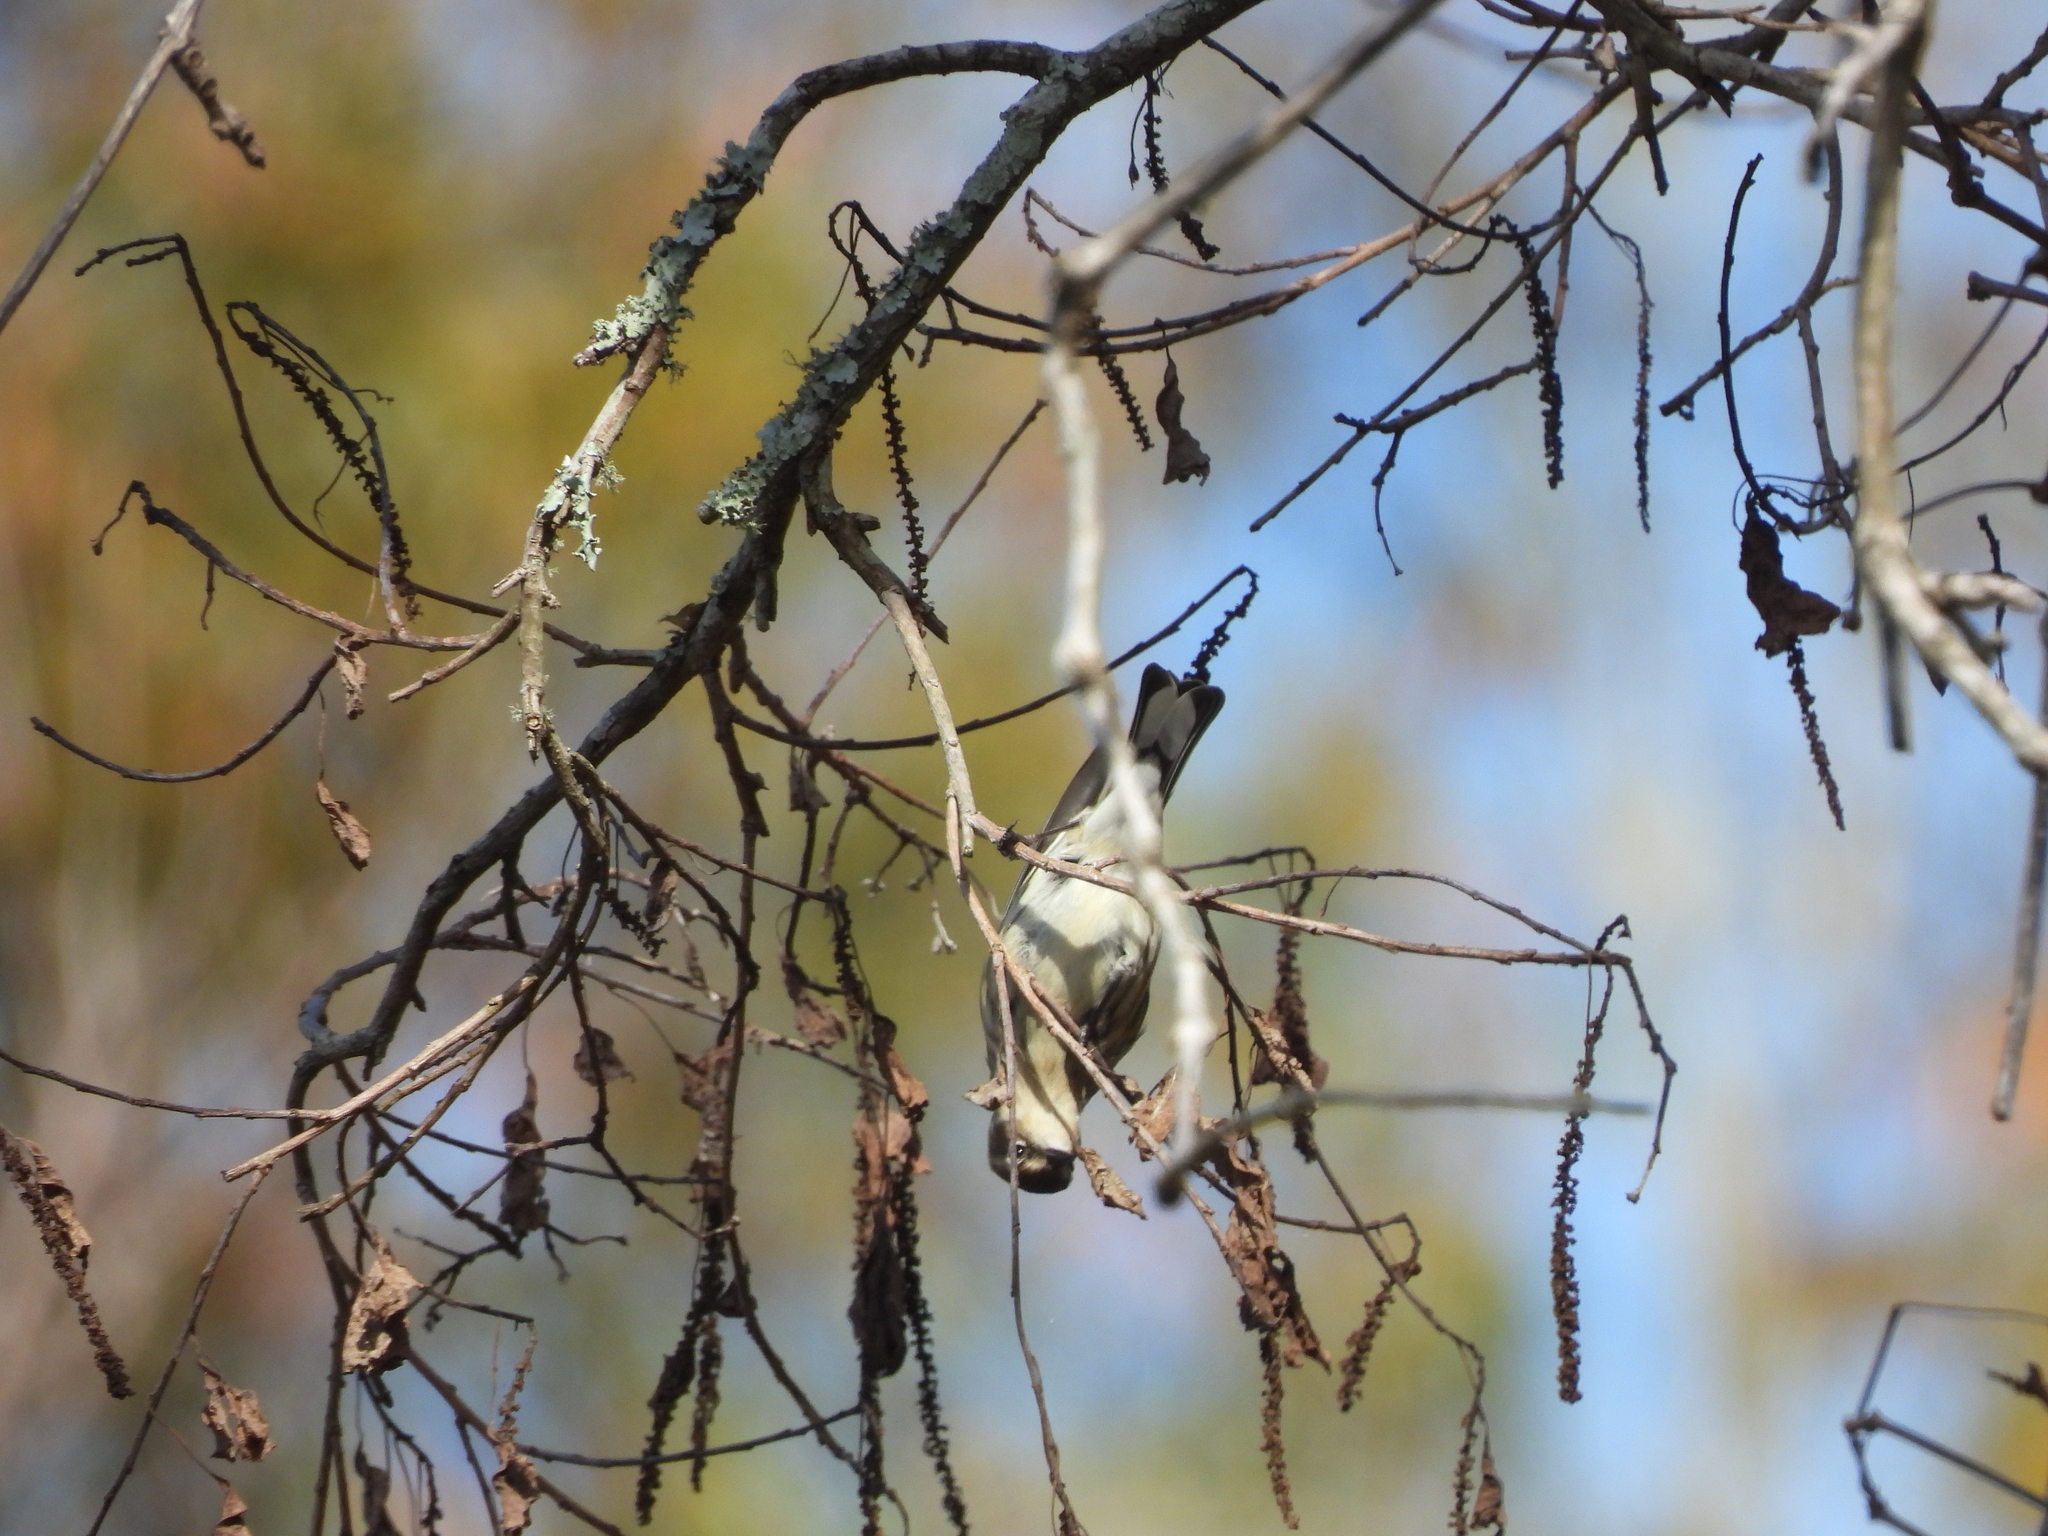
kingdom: Animalia
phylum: Chordata
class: Aves
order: Passeriformes
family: Parulidae
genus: Setophaga
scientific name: Setophaga coronata
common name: Myrtle warbler
